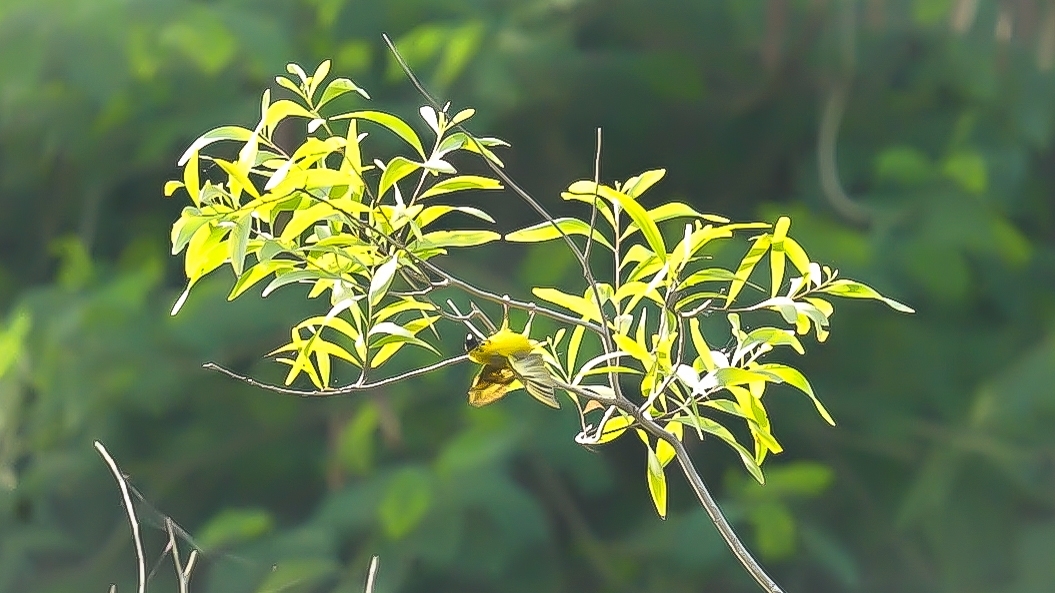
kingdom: Animalia
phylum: Chordata
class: Aves
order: Passeriformes
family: Ploceidae
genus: Ploceus
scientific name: Ploceus jacksoni
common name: Golden-backed weaver
